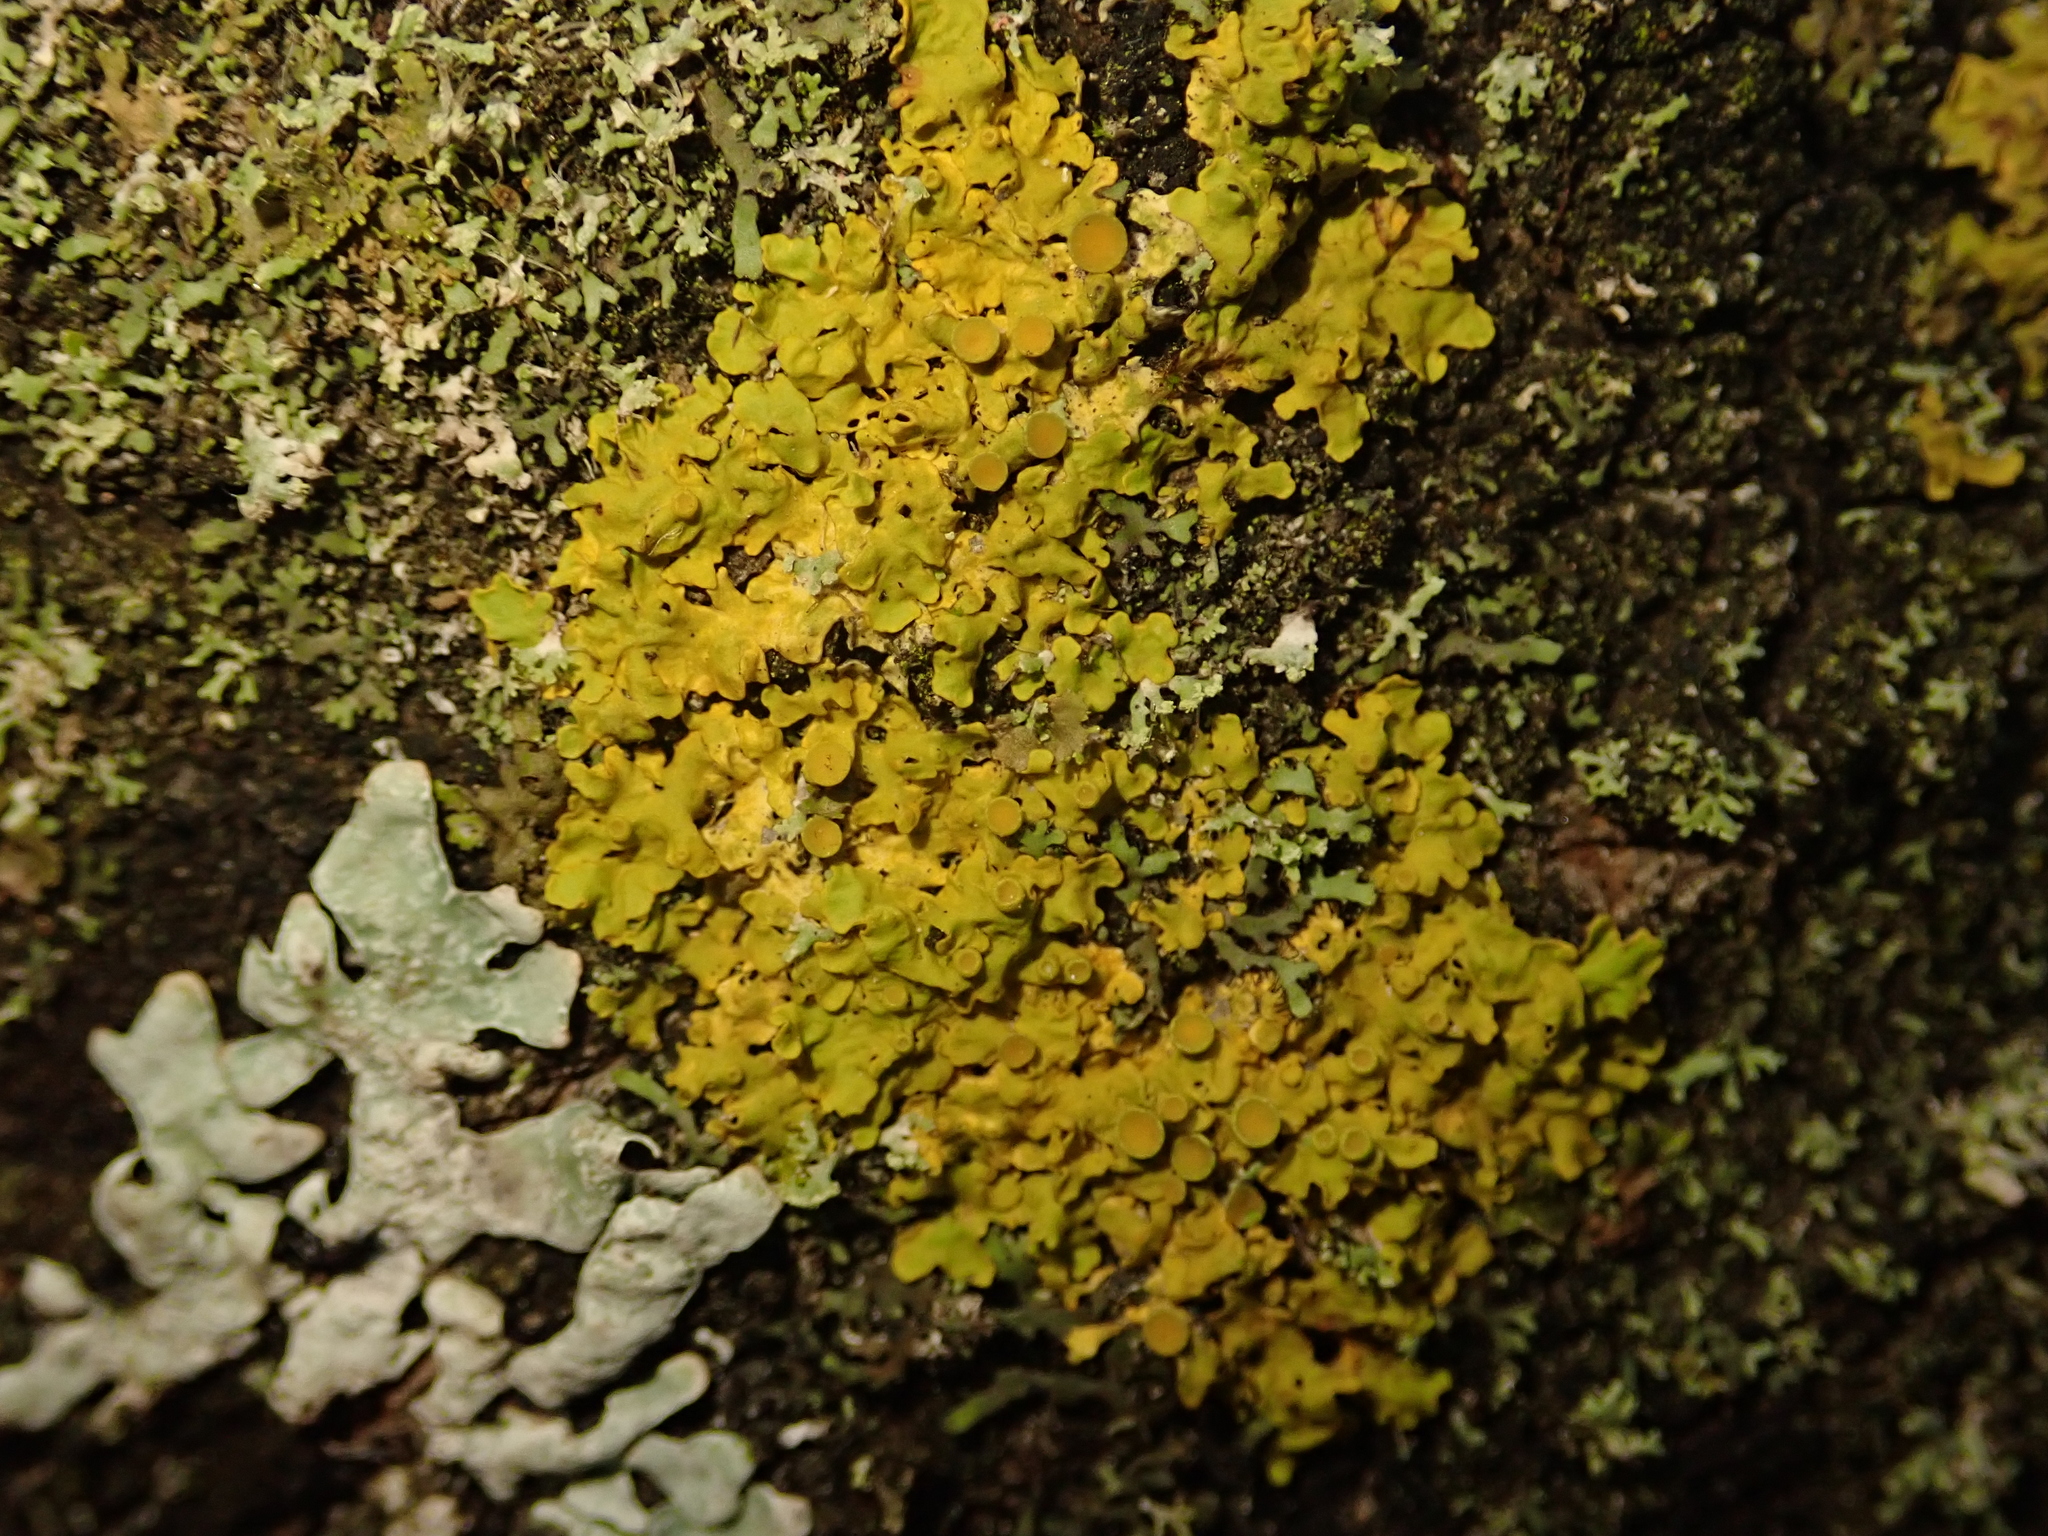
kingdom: Fungi
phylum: Ascomycota
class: Lecanoromycetes
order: Teloschistales
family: Teloschistaceae
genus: Xanthoria
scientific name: Xanthoria parietina
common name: Common orange lichen
